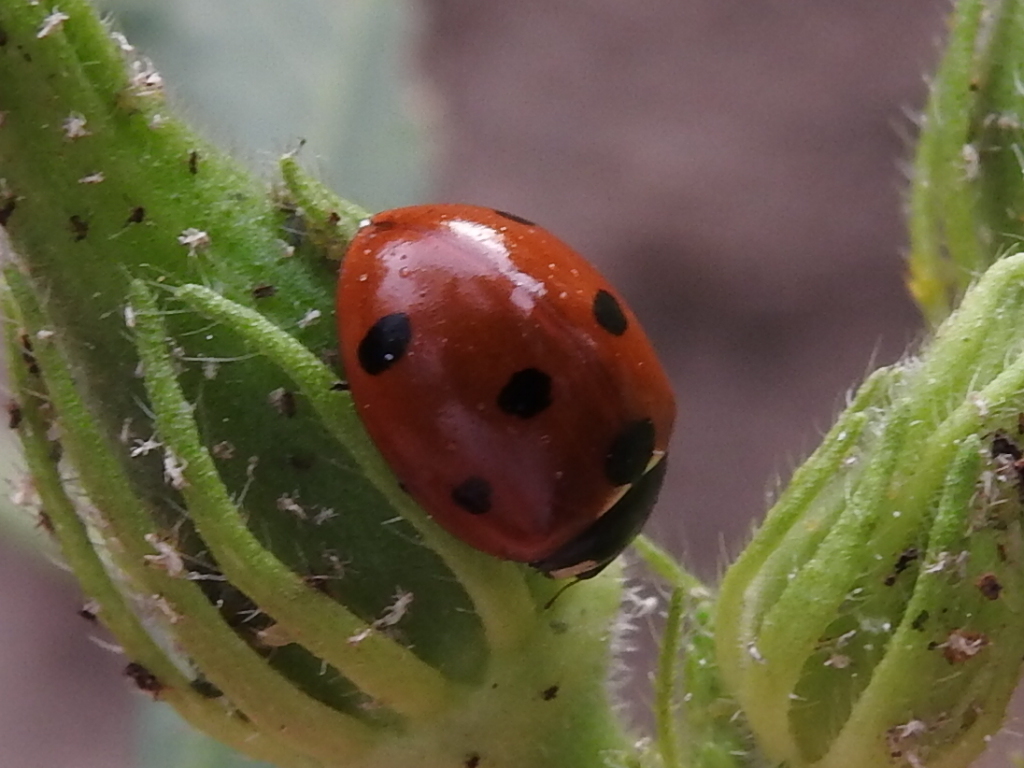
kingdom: Animalia
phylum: Arthropoda
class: Insecta
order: Coleoptera
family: Coccinellidae
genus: Coccinella
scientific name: Coccinella septempunctata
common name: Sevenspotted lady beetle
